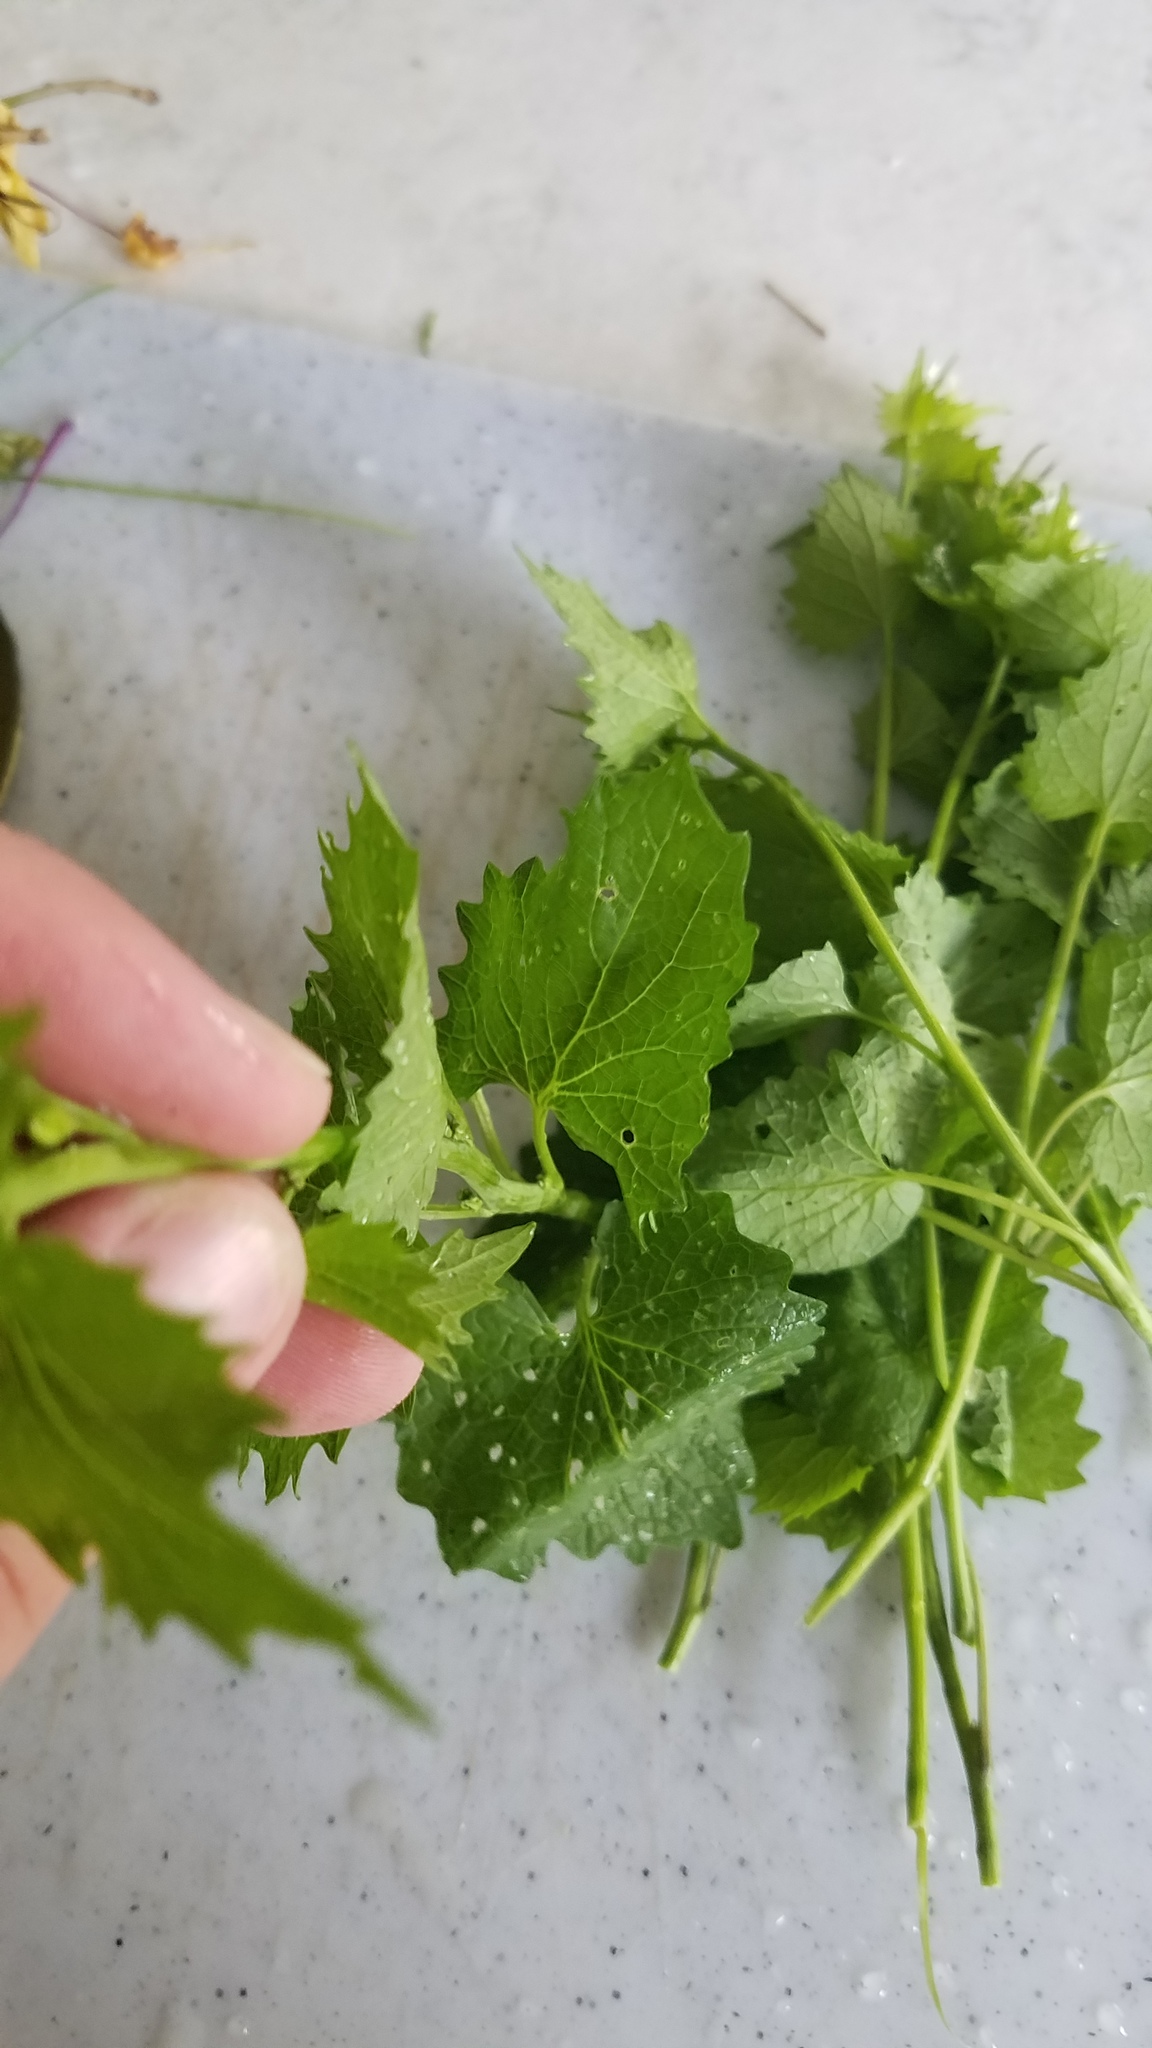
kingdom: Plantae
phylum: Tracheophyta
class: Magnoliopsida
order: Brassicales
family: Brassicaceae
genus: Alliaria
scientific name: Alliaria petiolata
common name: Garlic mustard
